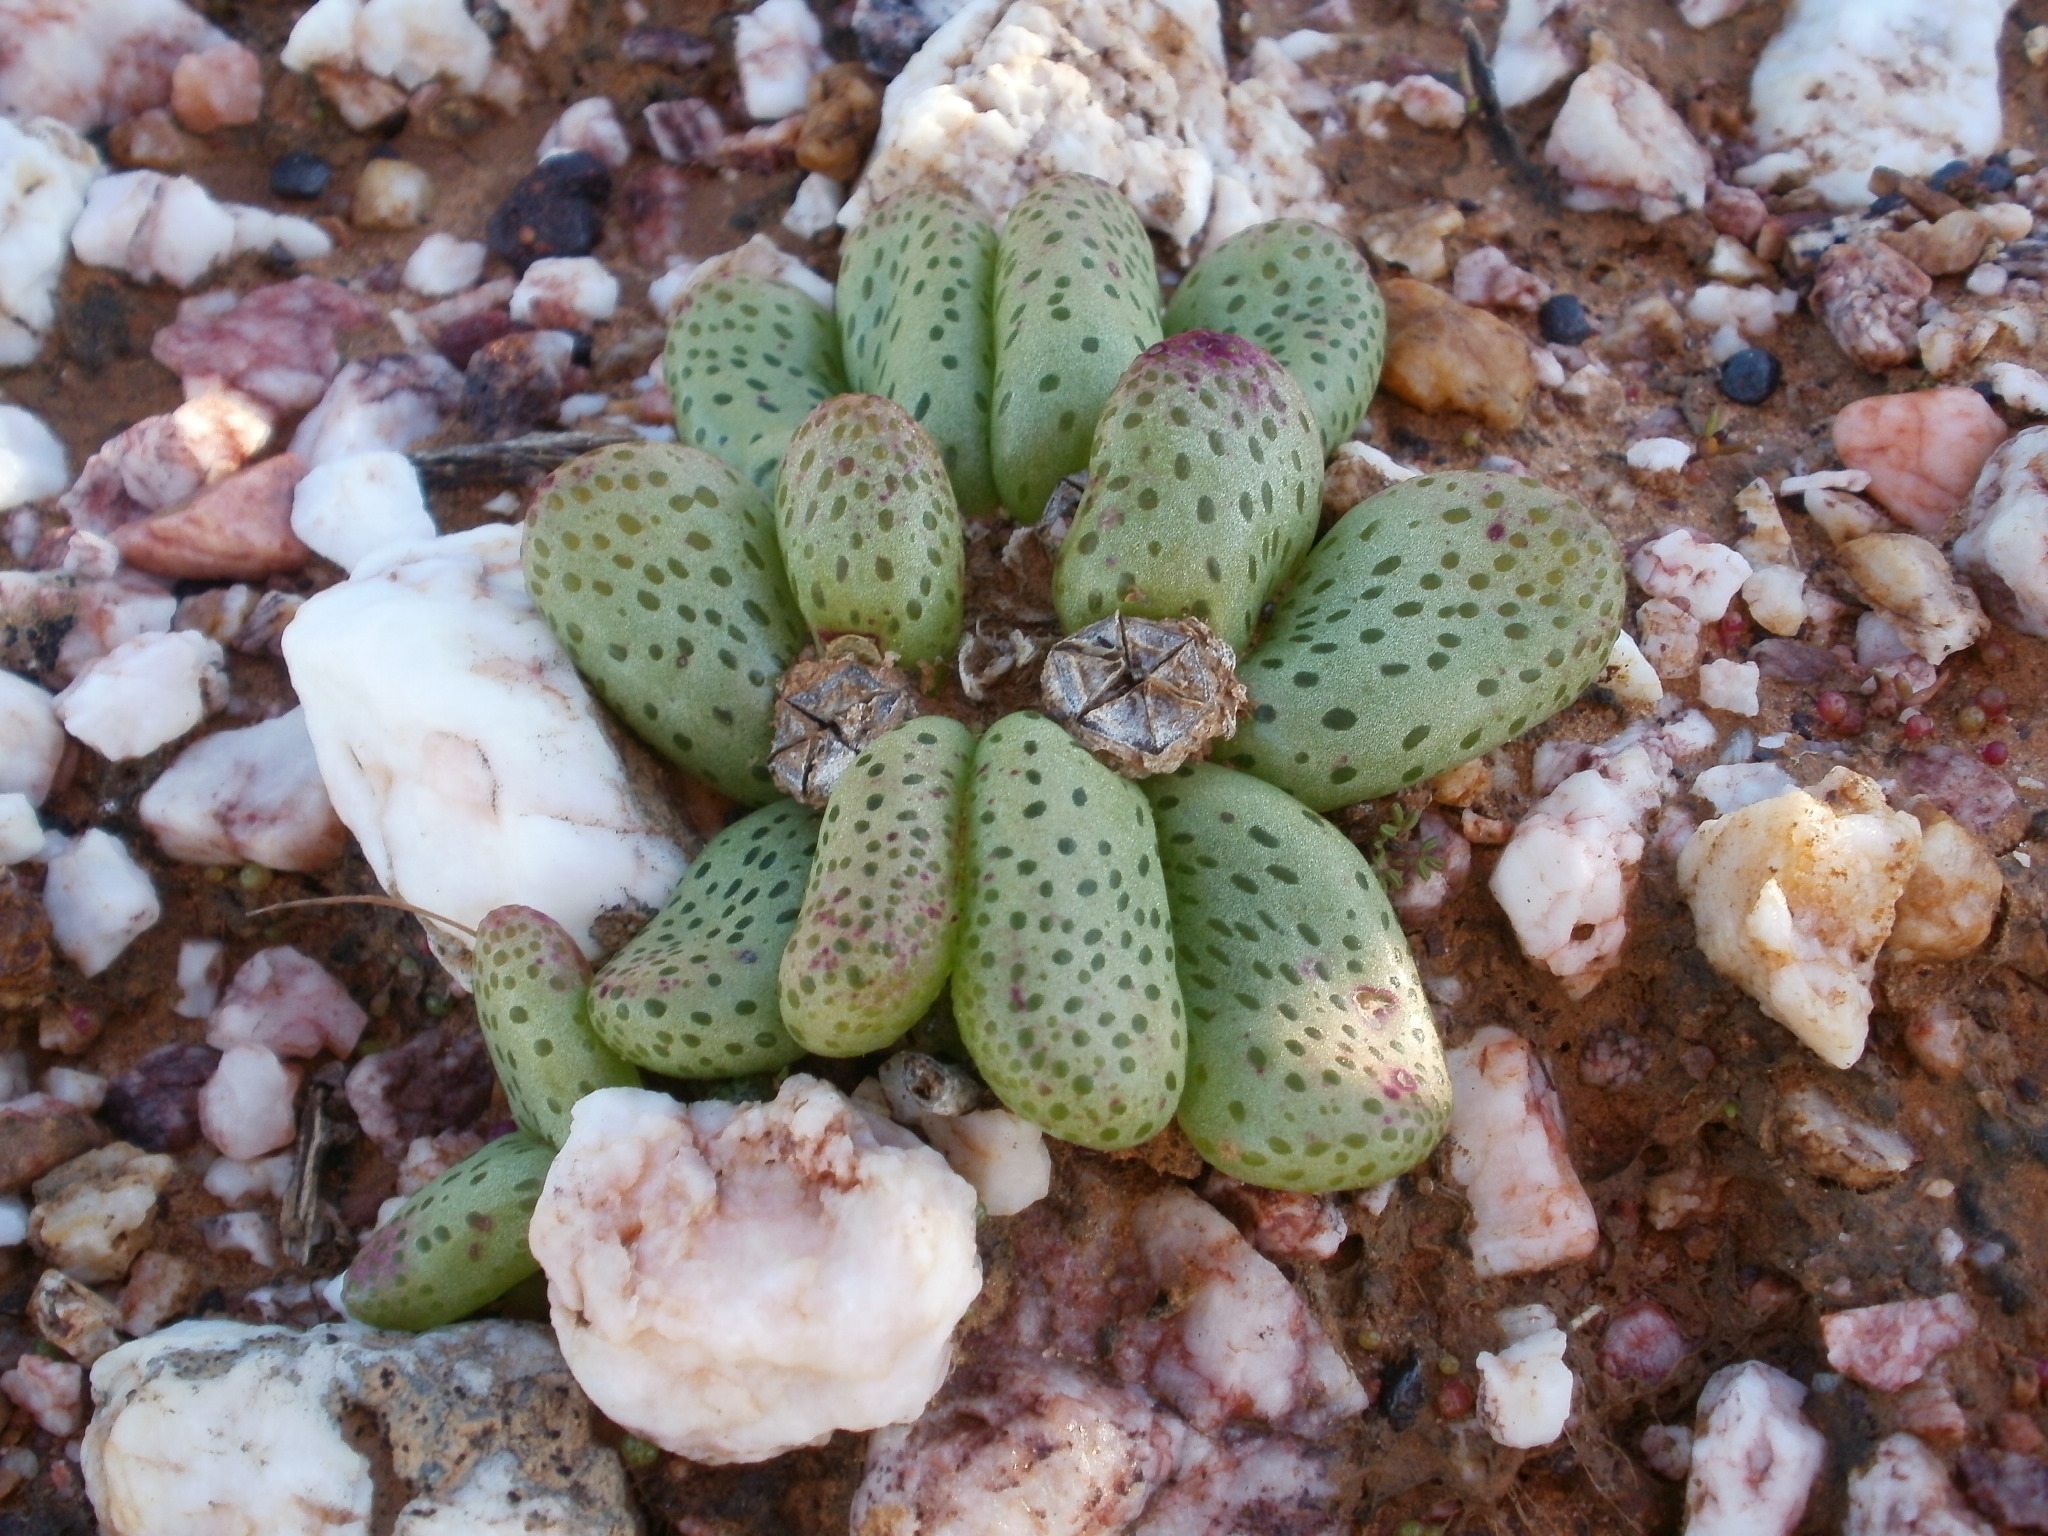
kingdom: Plantae
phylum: Tracheophyta
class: Magnoliopsida
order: Caryophyllales
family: Aizoaceae
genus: Diplosoma
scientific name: Diplosoma retroversum
